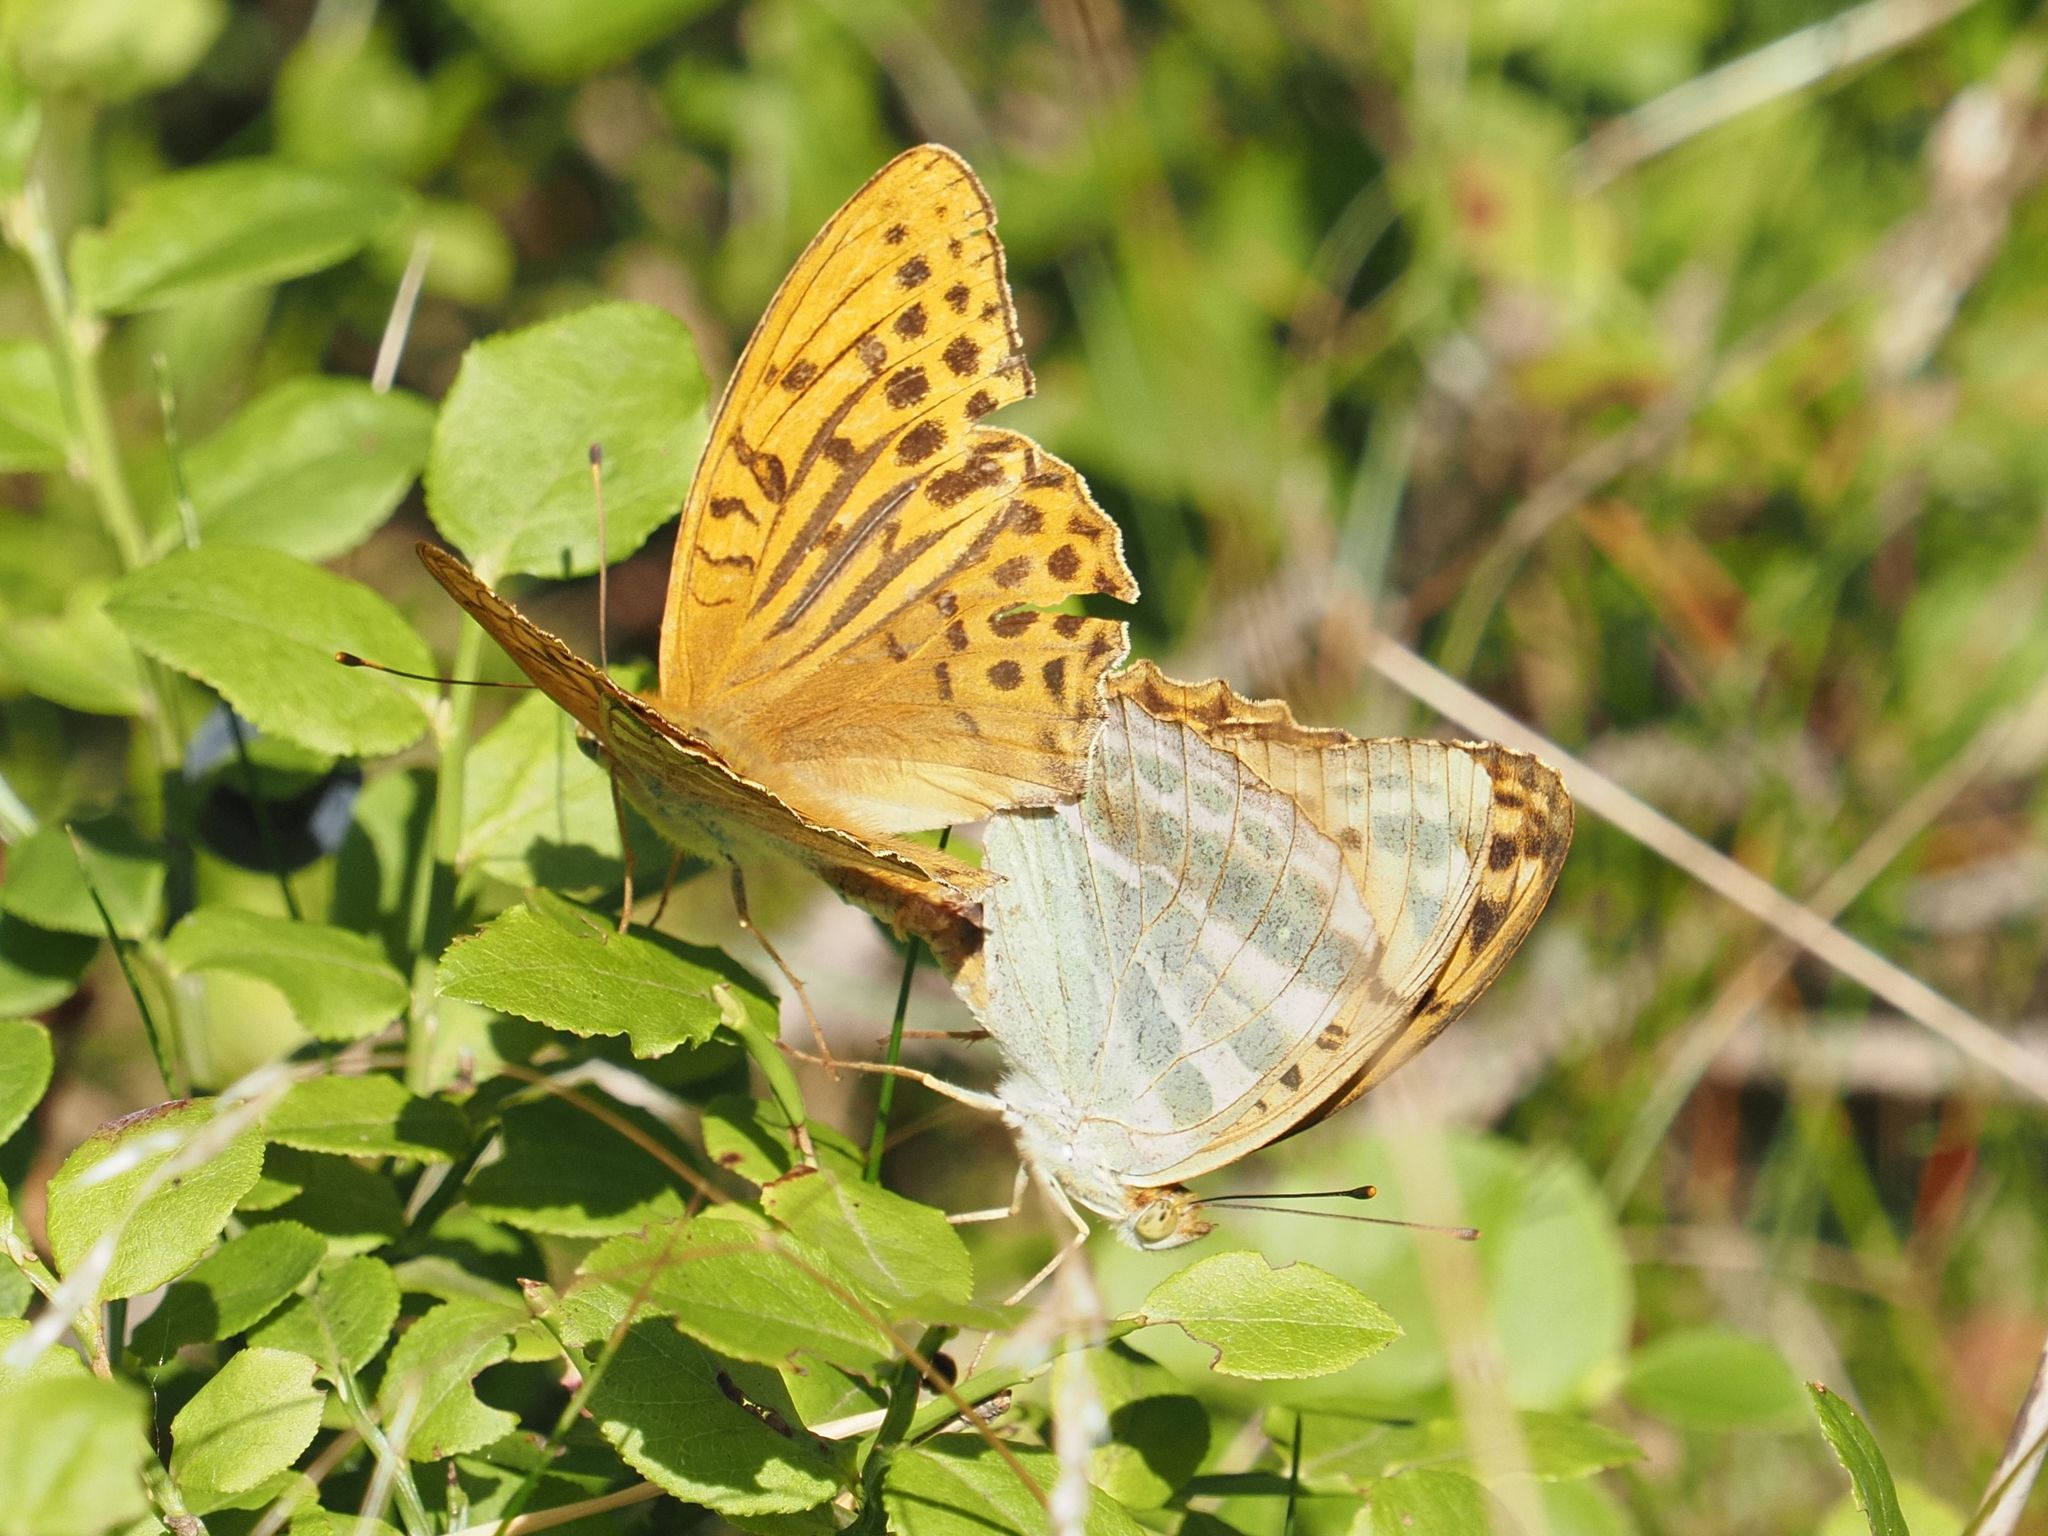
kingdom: Animalia
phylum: Arthropoda
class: Insecta
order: Lepidoptera
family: Nymphalidae
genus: Argynnis
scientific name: Argynnis paphia
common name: Silver-washed fritillary
